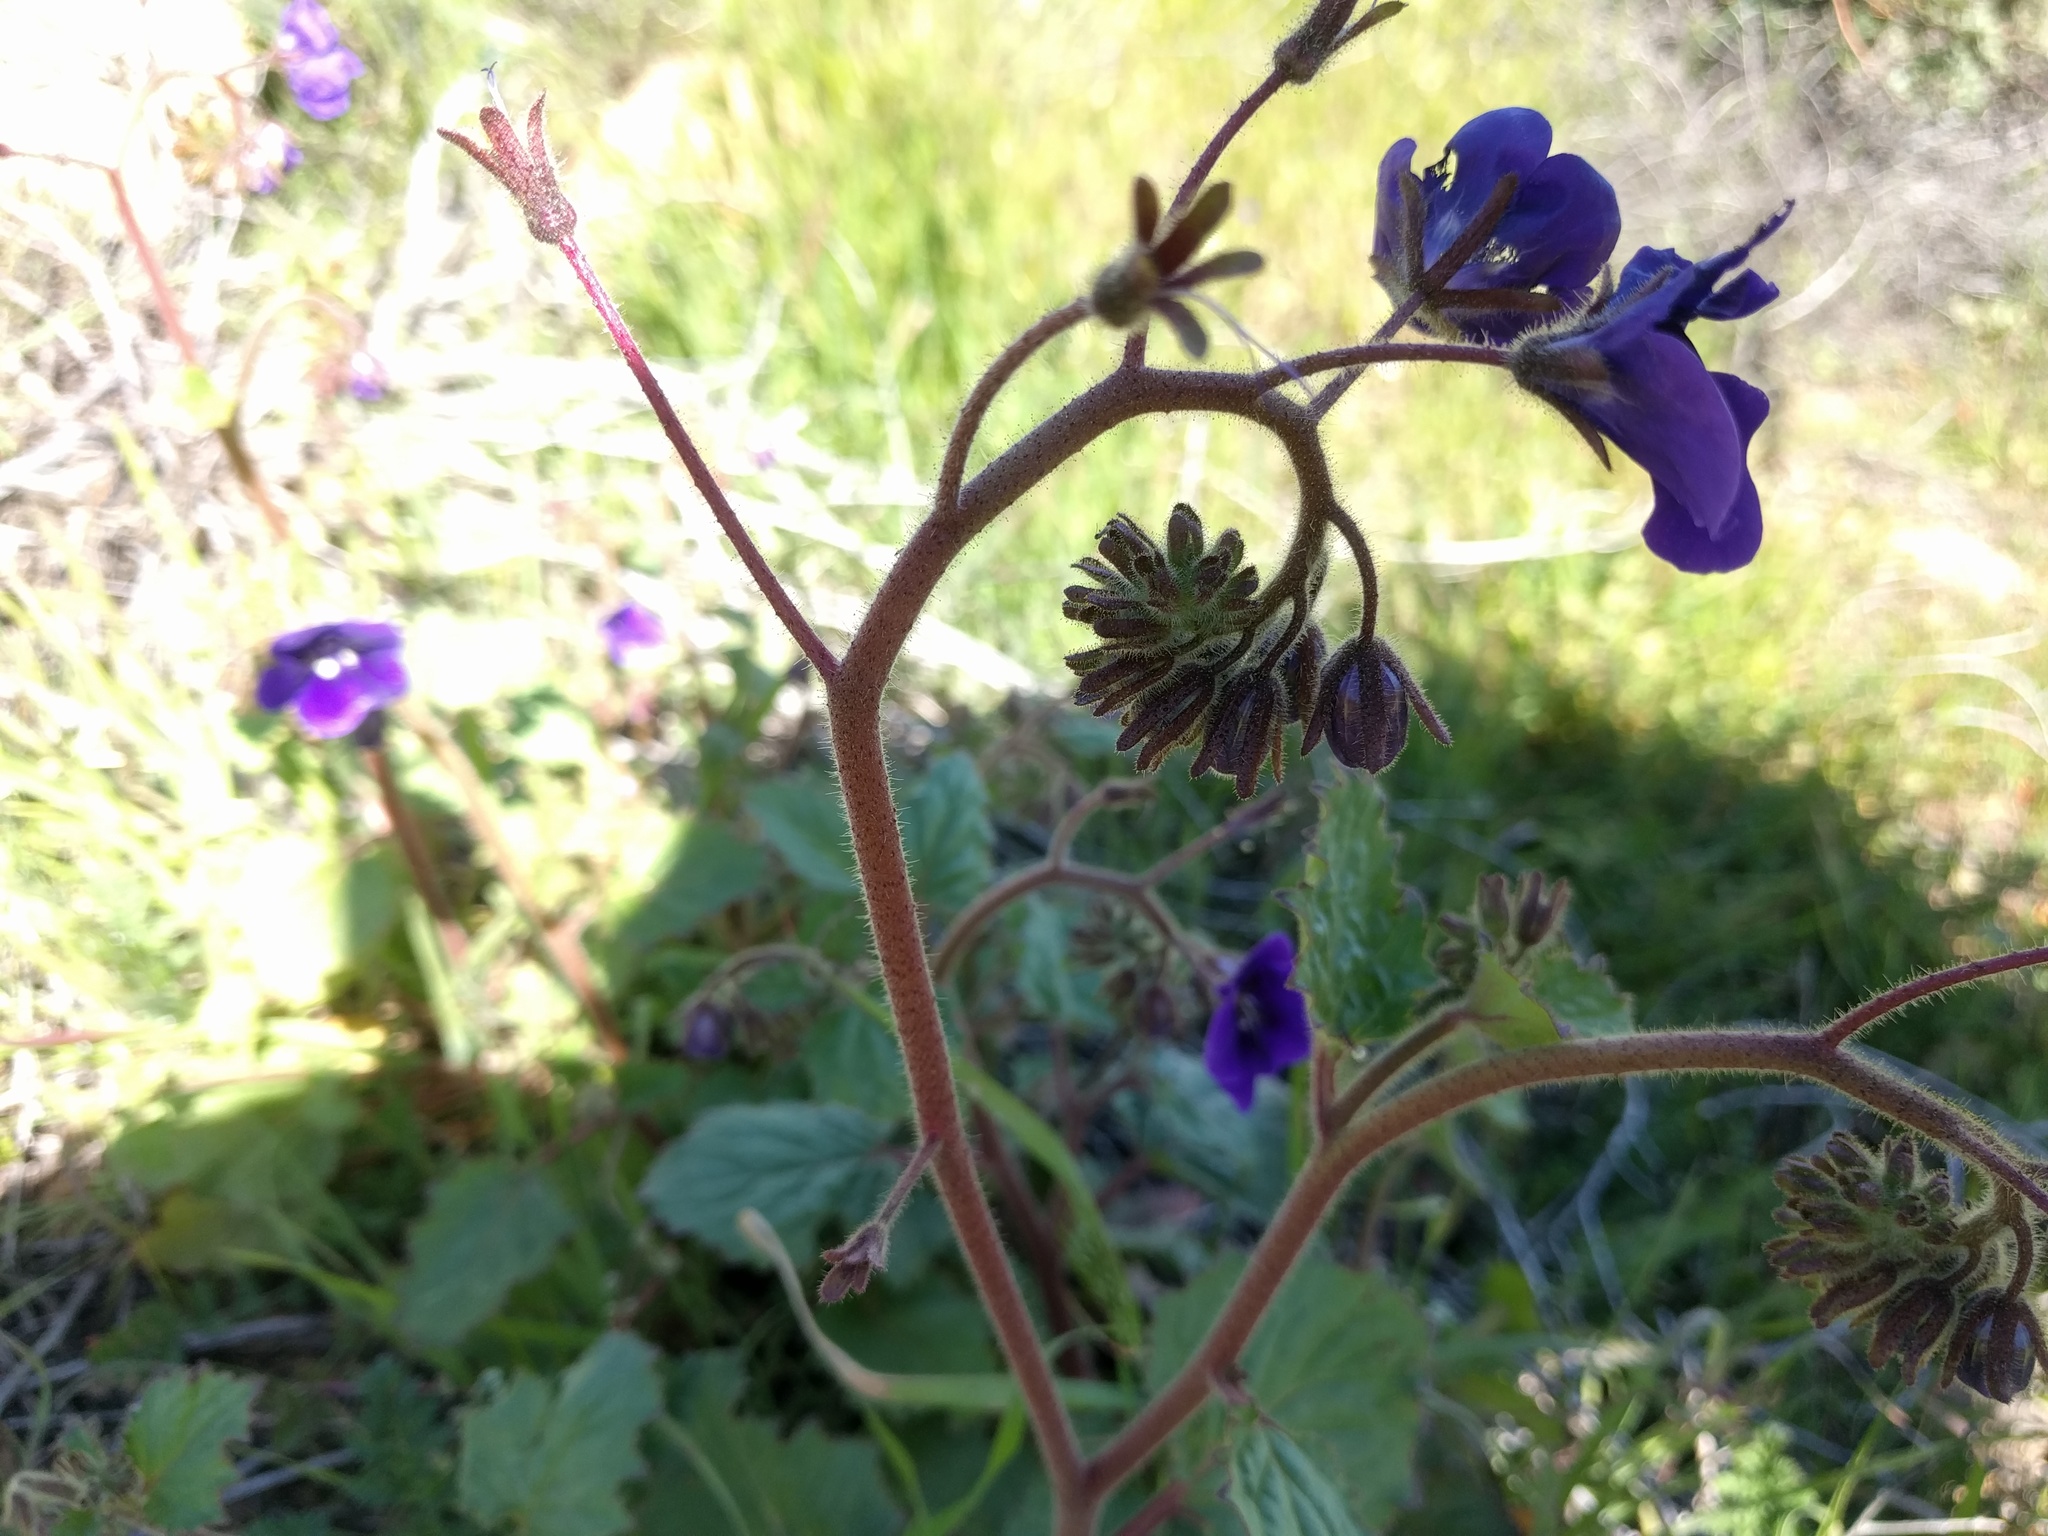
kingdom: Plantae
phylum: Tracheophyta
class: Magnoliopsida
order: Boraginales
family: Hydrophyllaceae
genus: Phacelia
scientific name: Phacelia parryi
